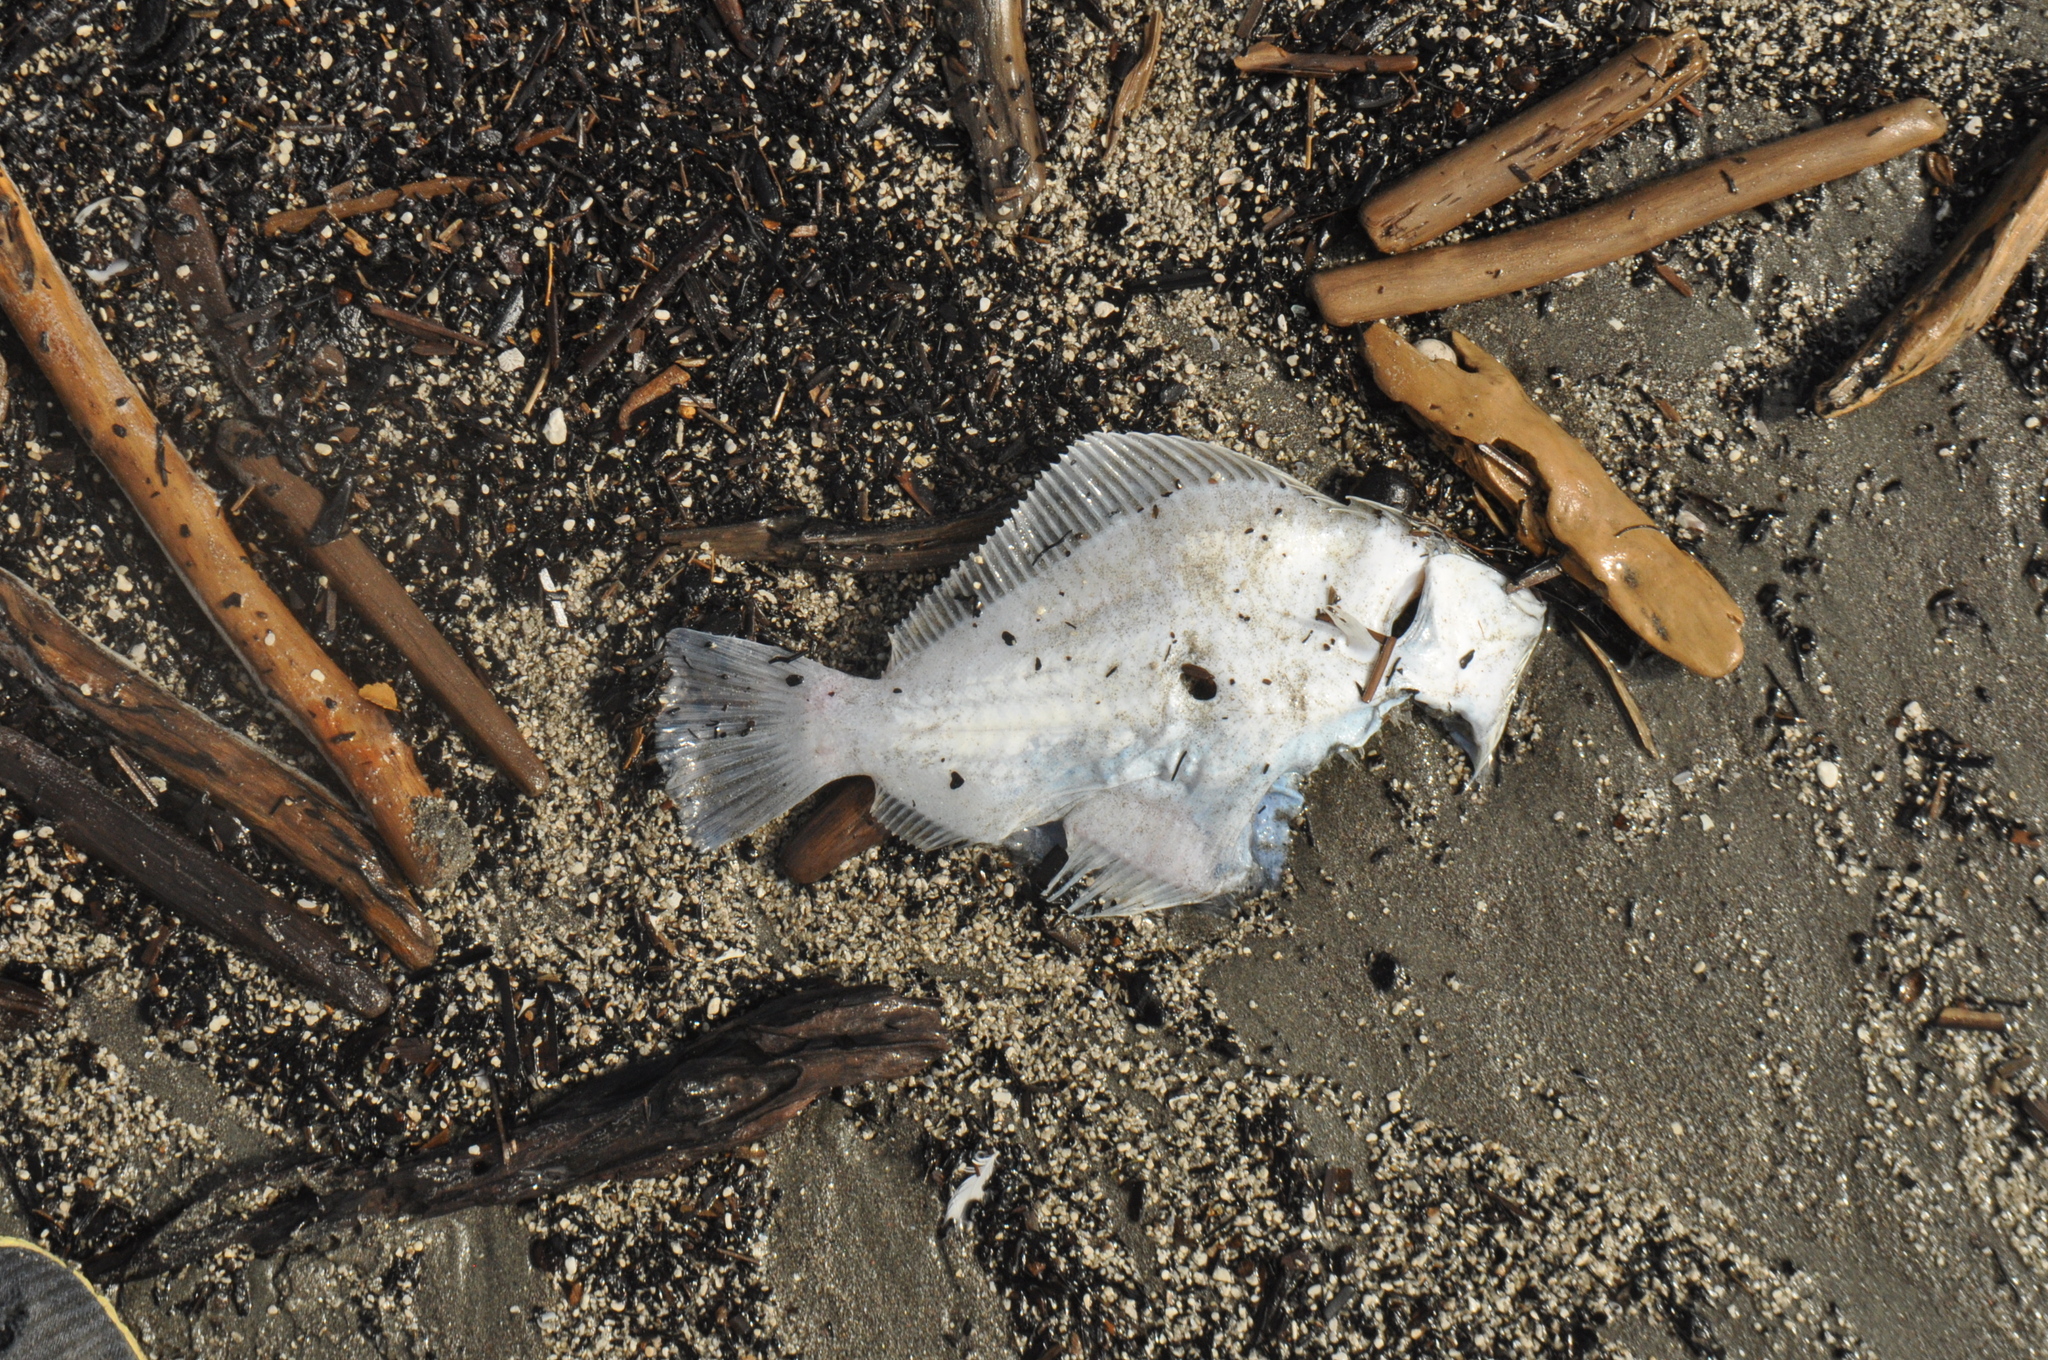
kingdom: Animalia
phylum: Chordata
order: Pleuronectiformes
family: Pleuronectidae
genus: Rhombosolea
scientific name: Rhombosolea plebeia
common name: Dab
